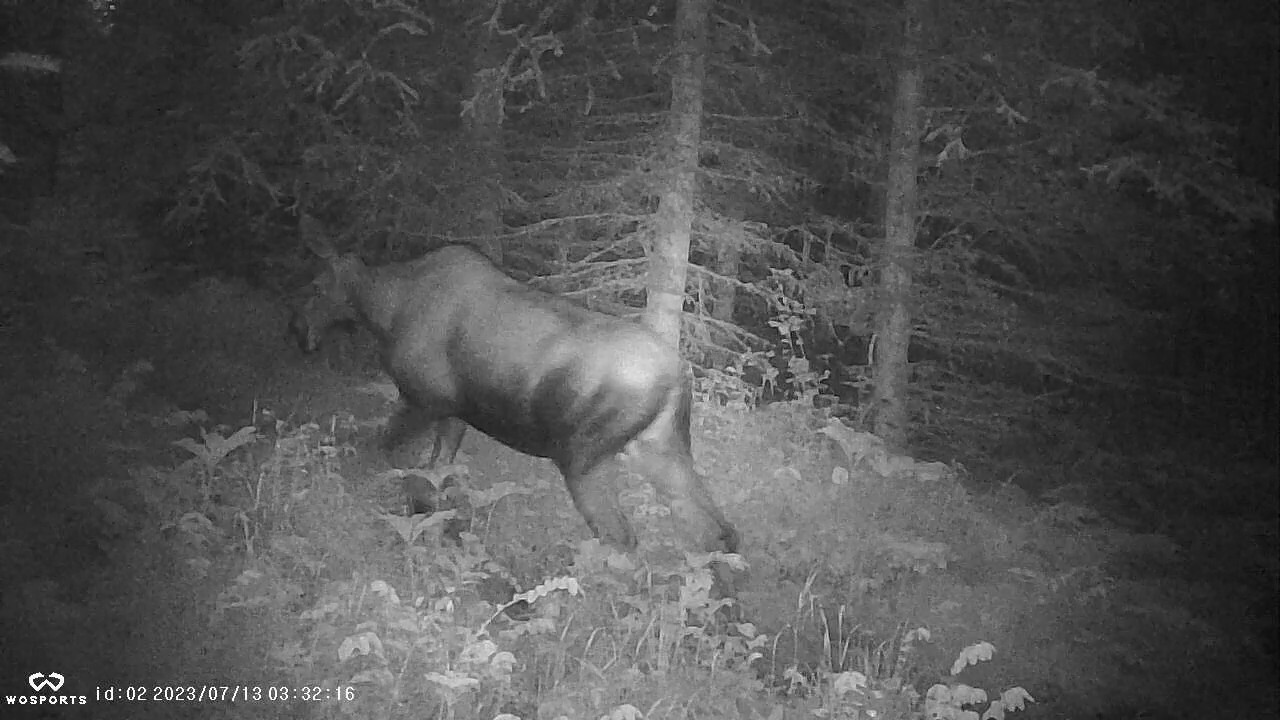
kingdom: Animalia
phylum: Chordata
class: Mammalia
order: Artiodactyla
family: Cervidae
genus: Alces
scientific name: Alces alces
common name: Moose
